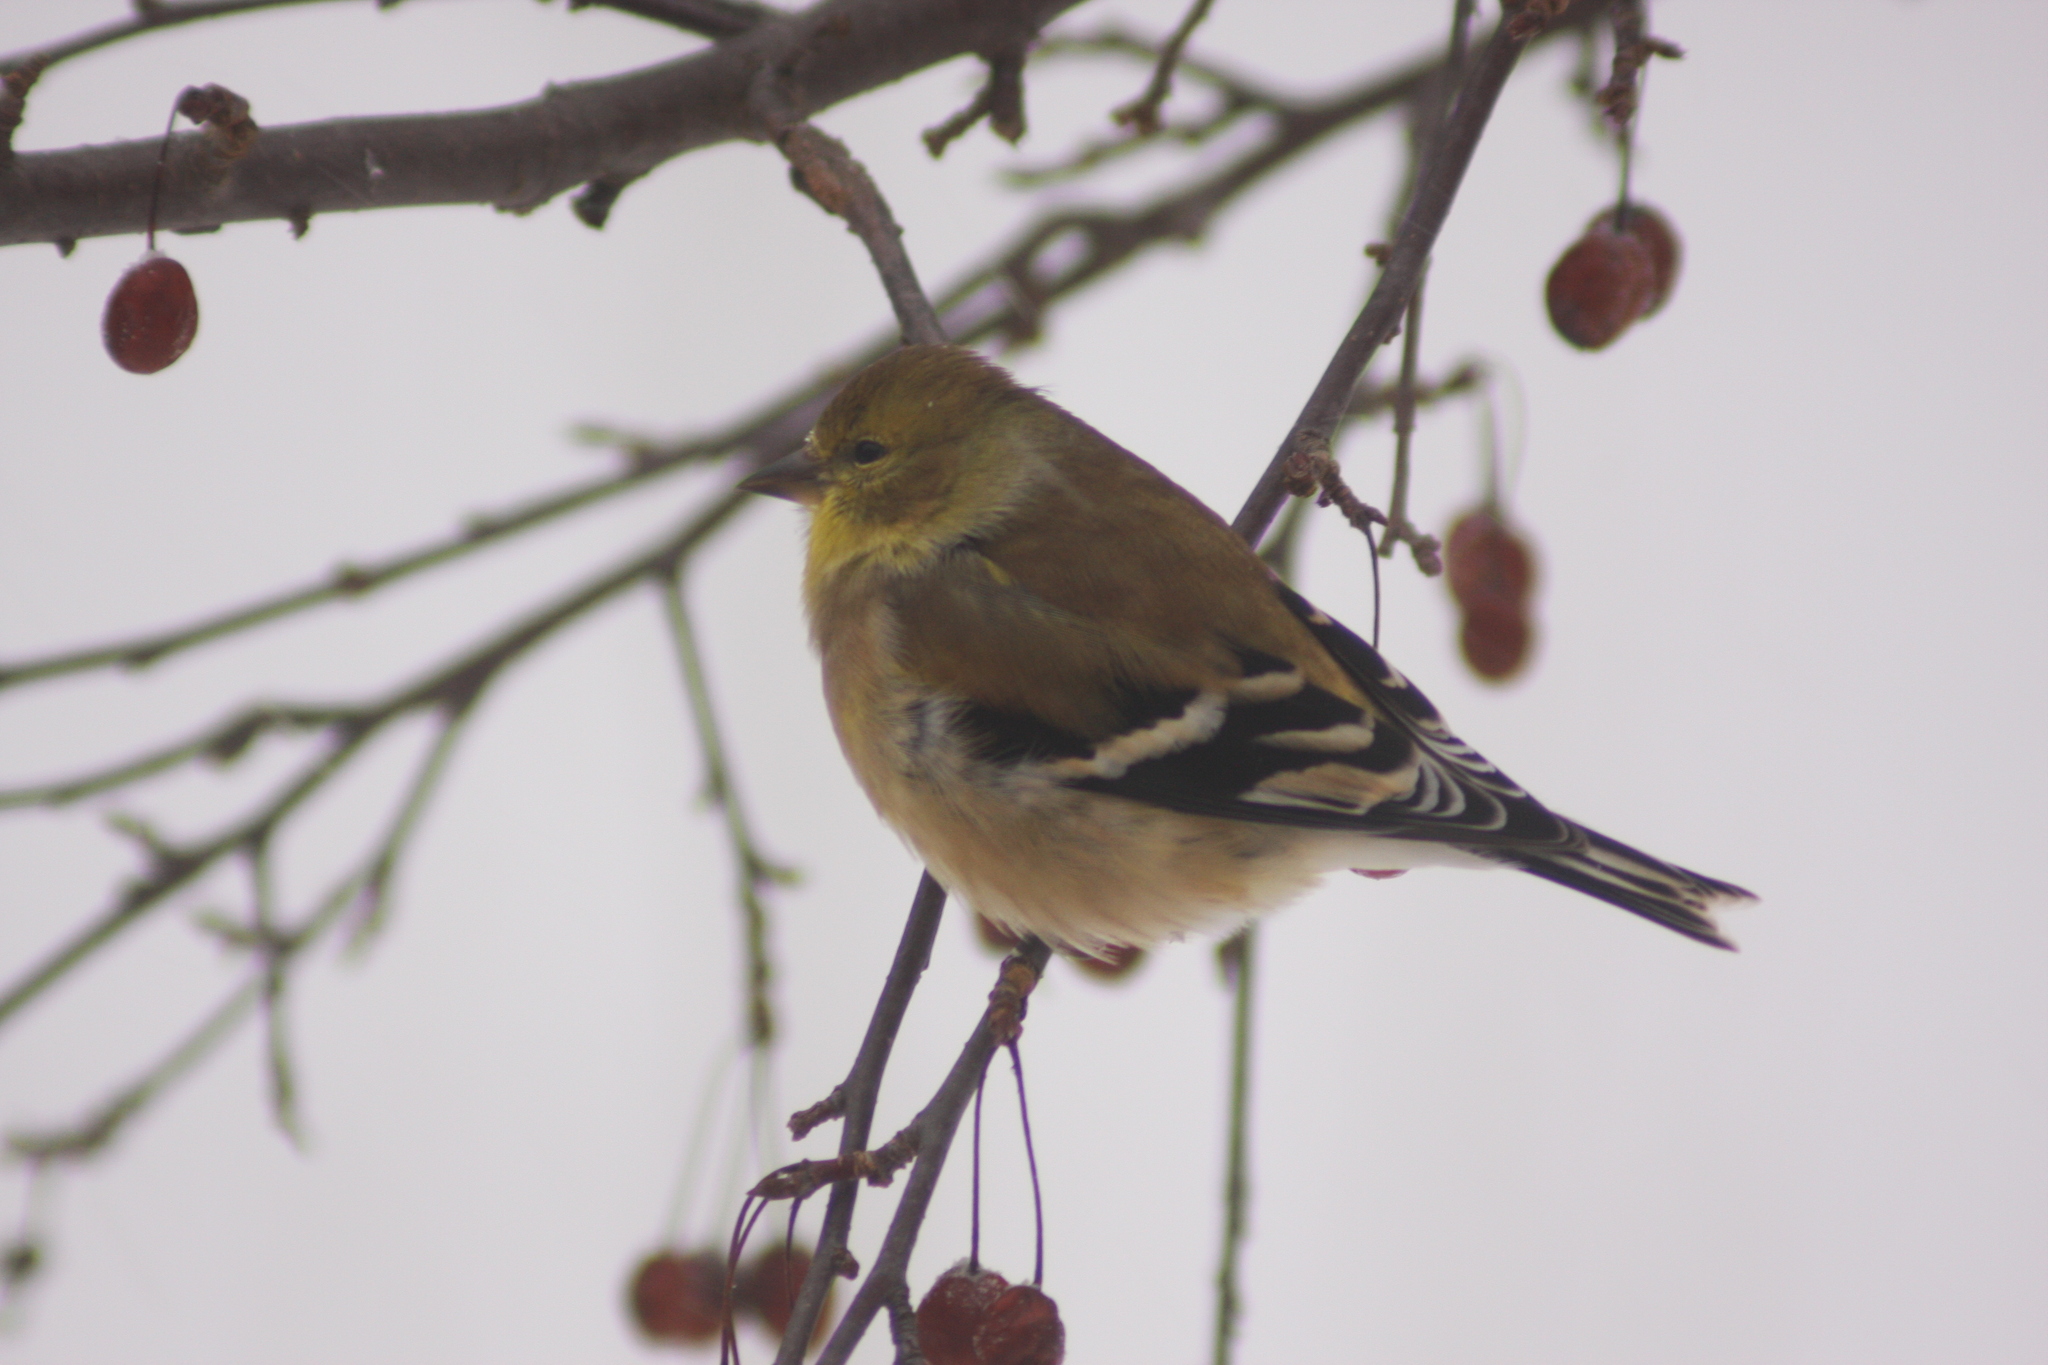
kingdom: Animalia
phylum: Chordata
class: Aves
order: Passeriformes
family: Fringillidae
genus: Spinus
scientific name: Spinus tristis
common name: American goldfinch
